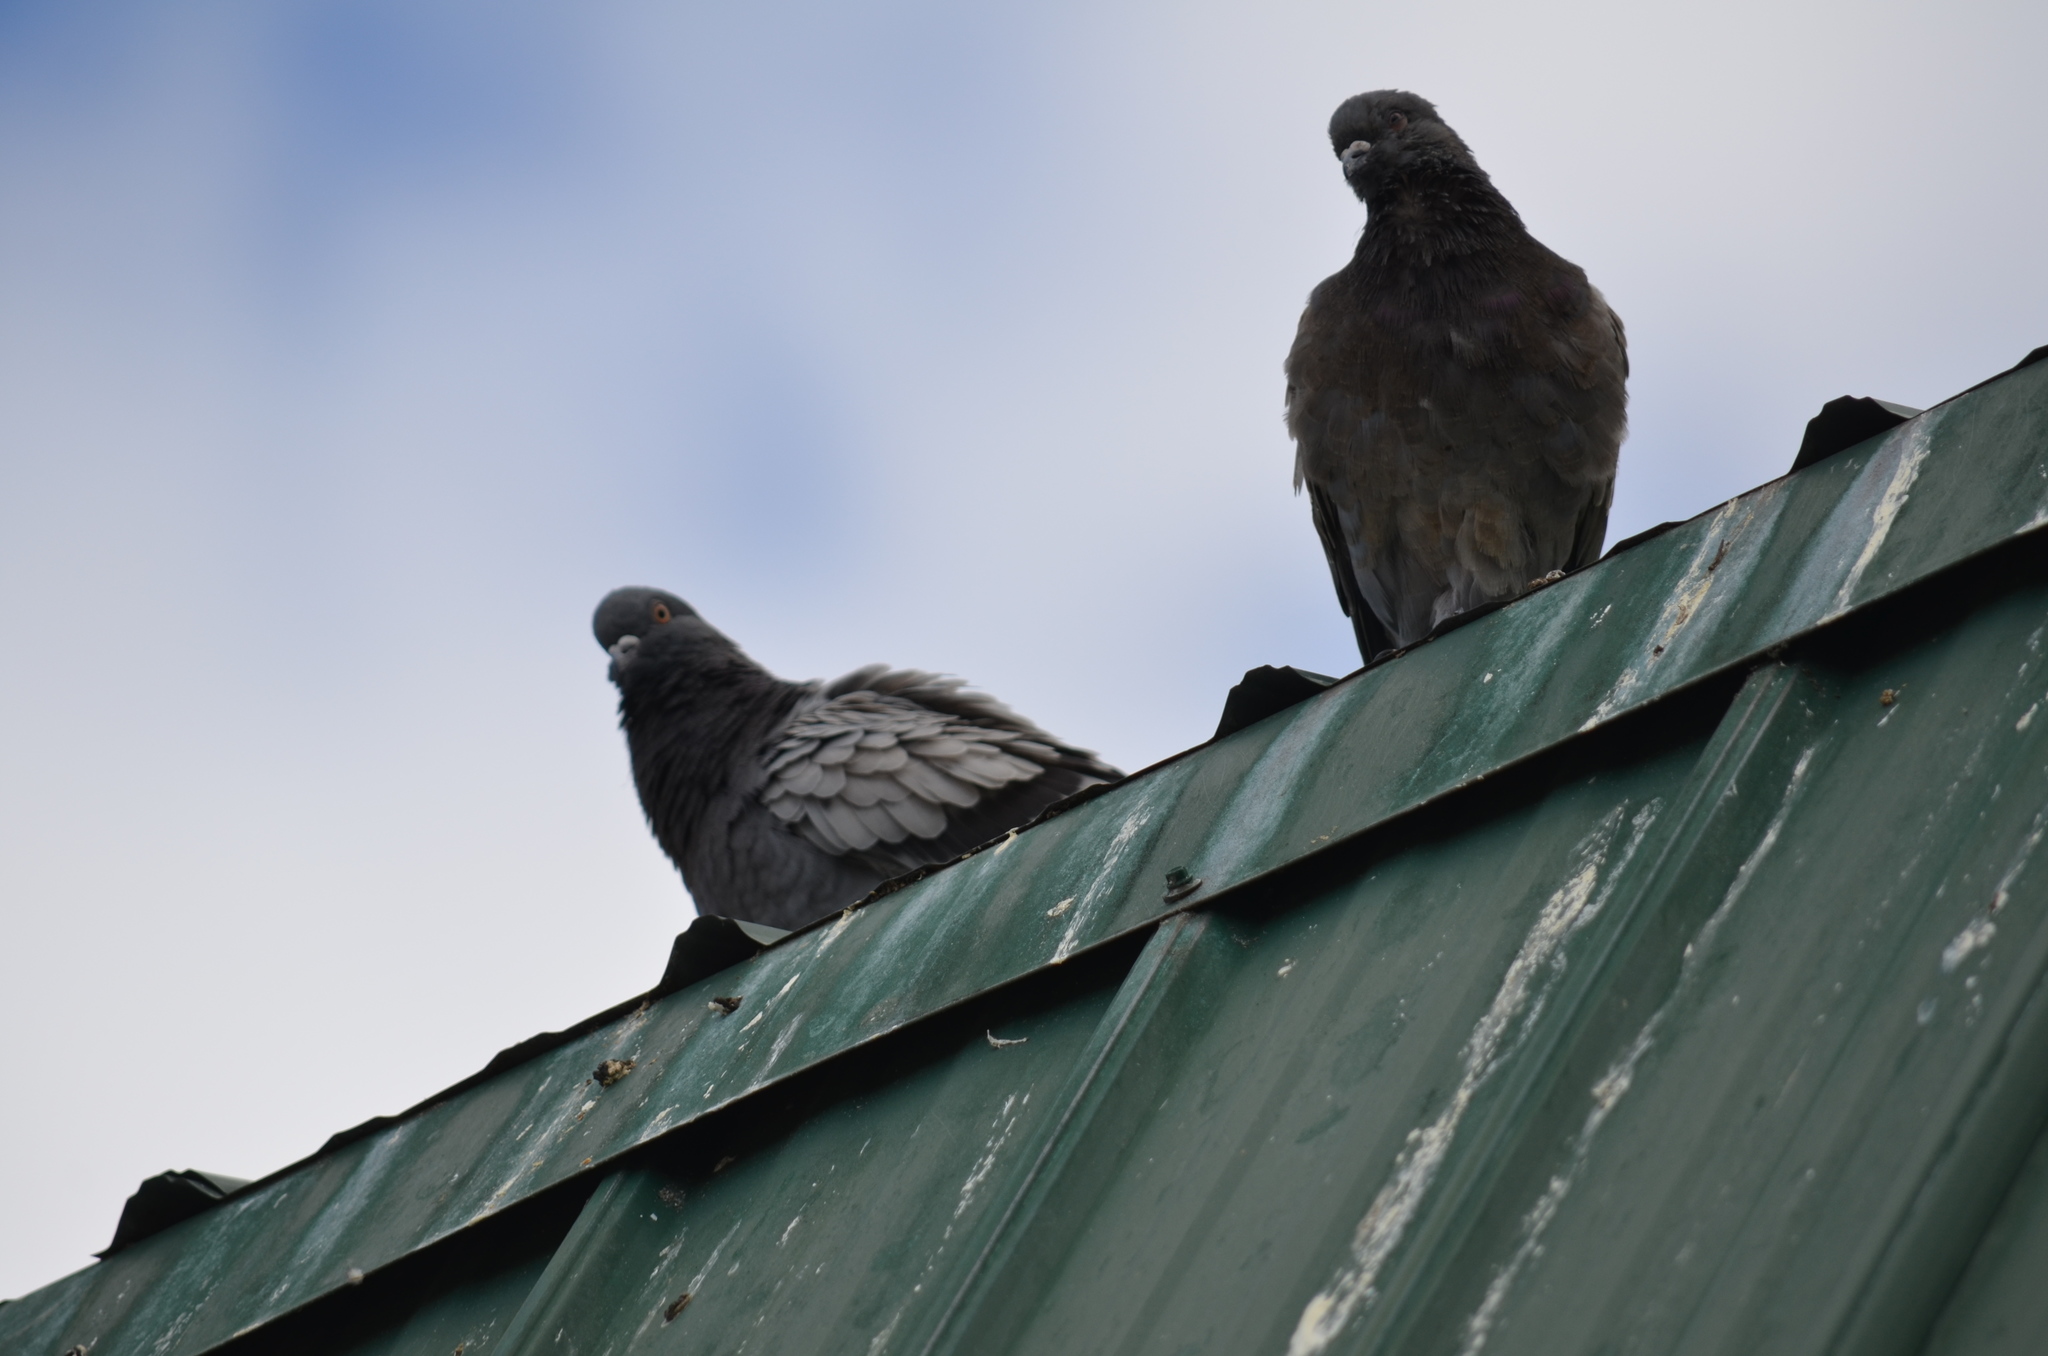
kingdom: Animalia
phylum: Chordata
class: Aves
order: Columbiformes
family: Columbidae
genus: Columba
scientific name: Columba livia
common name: Rock pigeon
